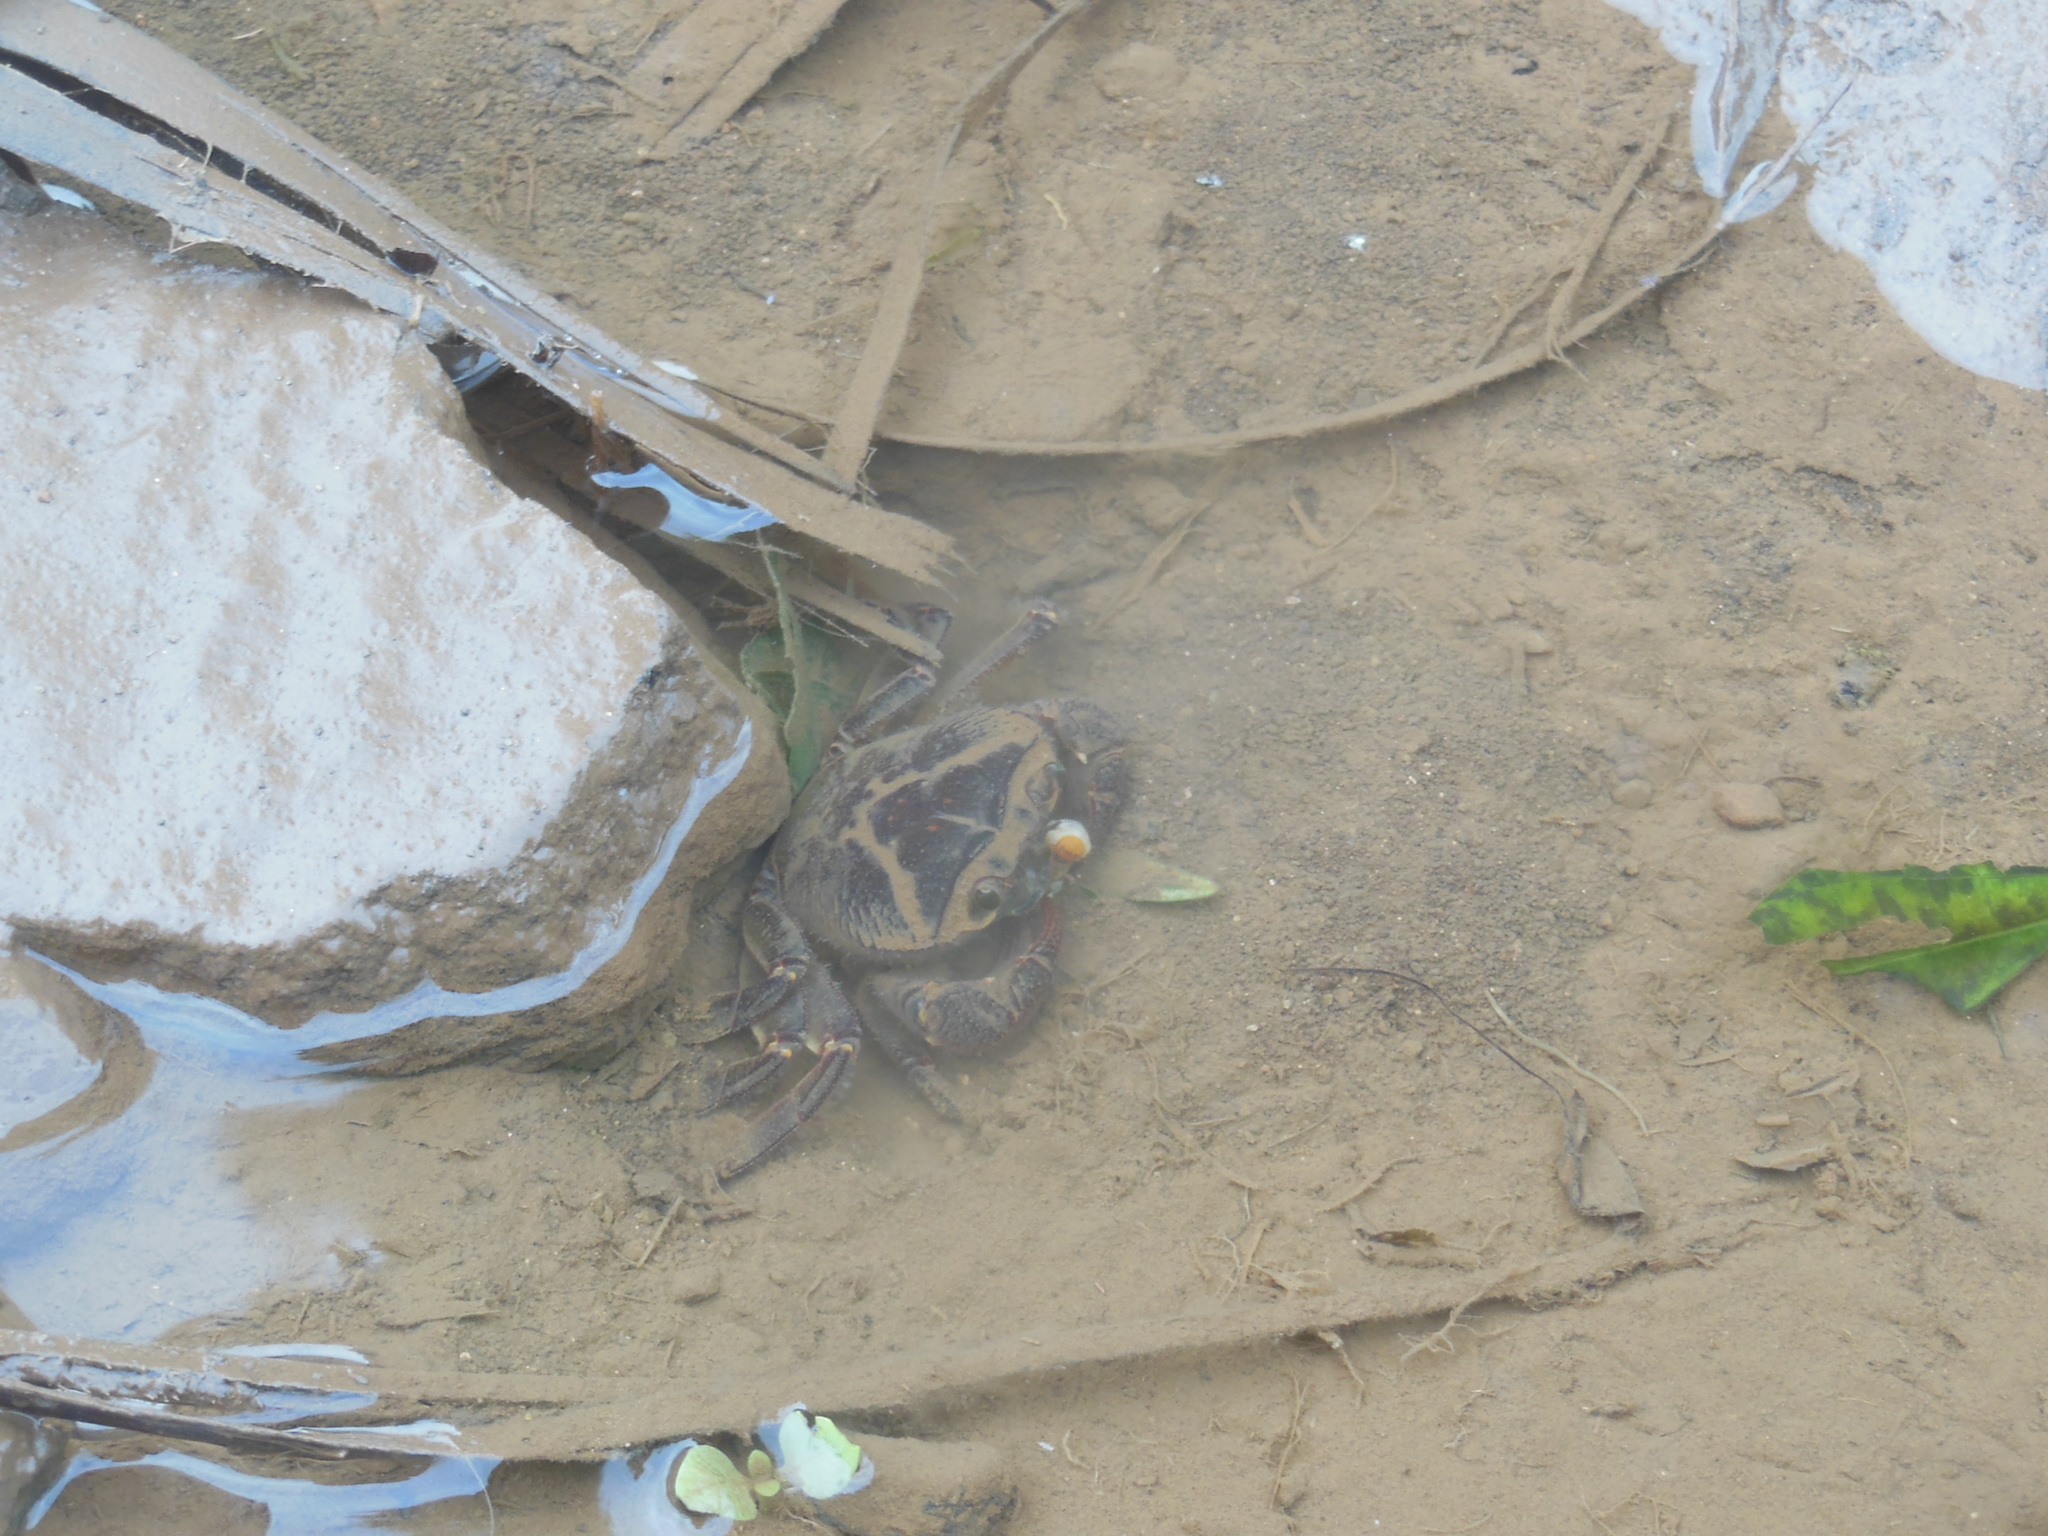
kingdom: Animalia
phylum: Arthropoda
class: Malacostraca
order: Decapoda
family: Gecarcinucidae
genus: Barytelphusa
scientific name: Barytelphusa cunicularis
